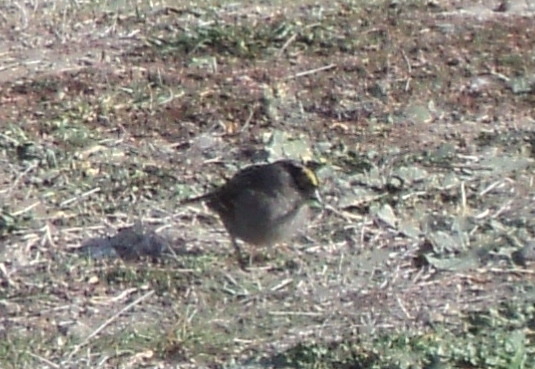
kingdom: Animalia
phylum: Chordata
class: Aves
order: Passeriformes
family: Passerellidae
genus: Zonotrichia
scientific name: Zonotrichia atricapilla
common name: Golden-crowned sparrow
